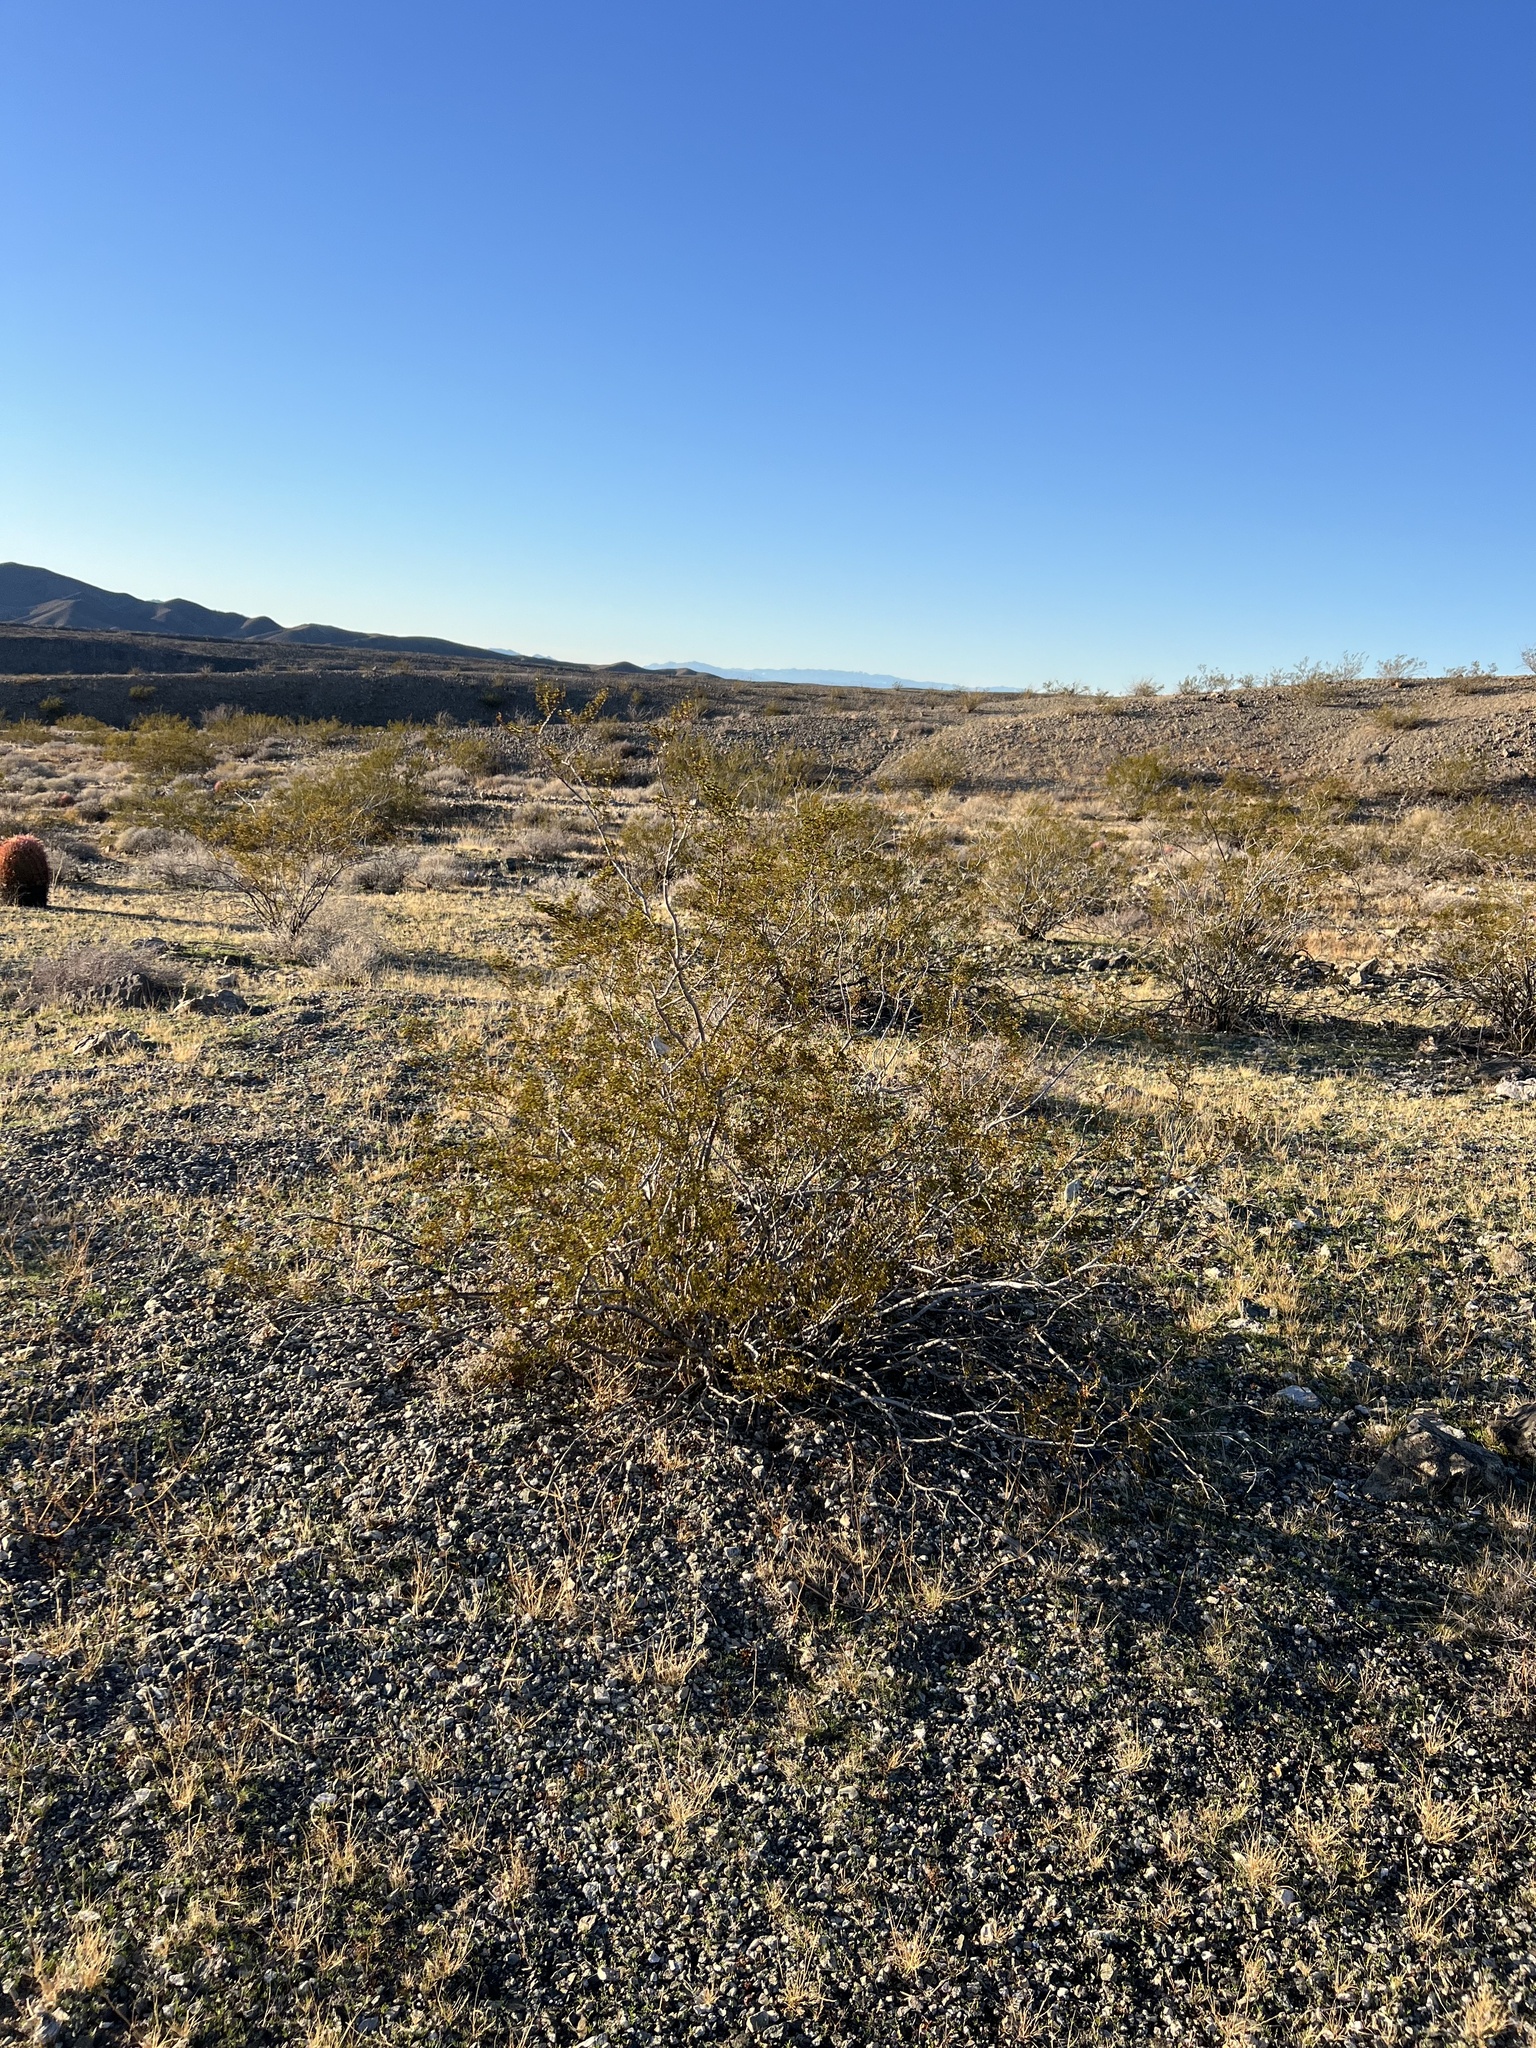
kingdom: Plantae
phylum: Tracheophyta
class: Magnoliopsida
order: Zygophyllales
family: Zygophyllaceae
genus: Larrea
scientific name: Larrea tridentata
